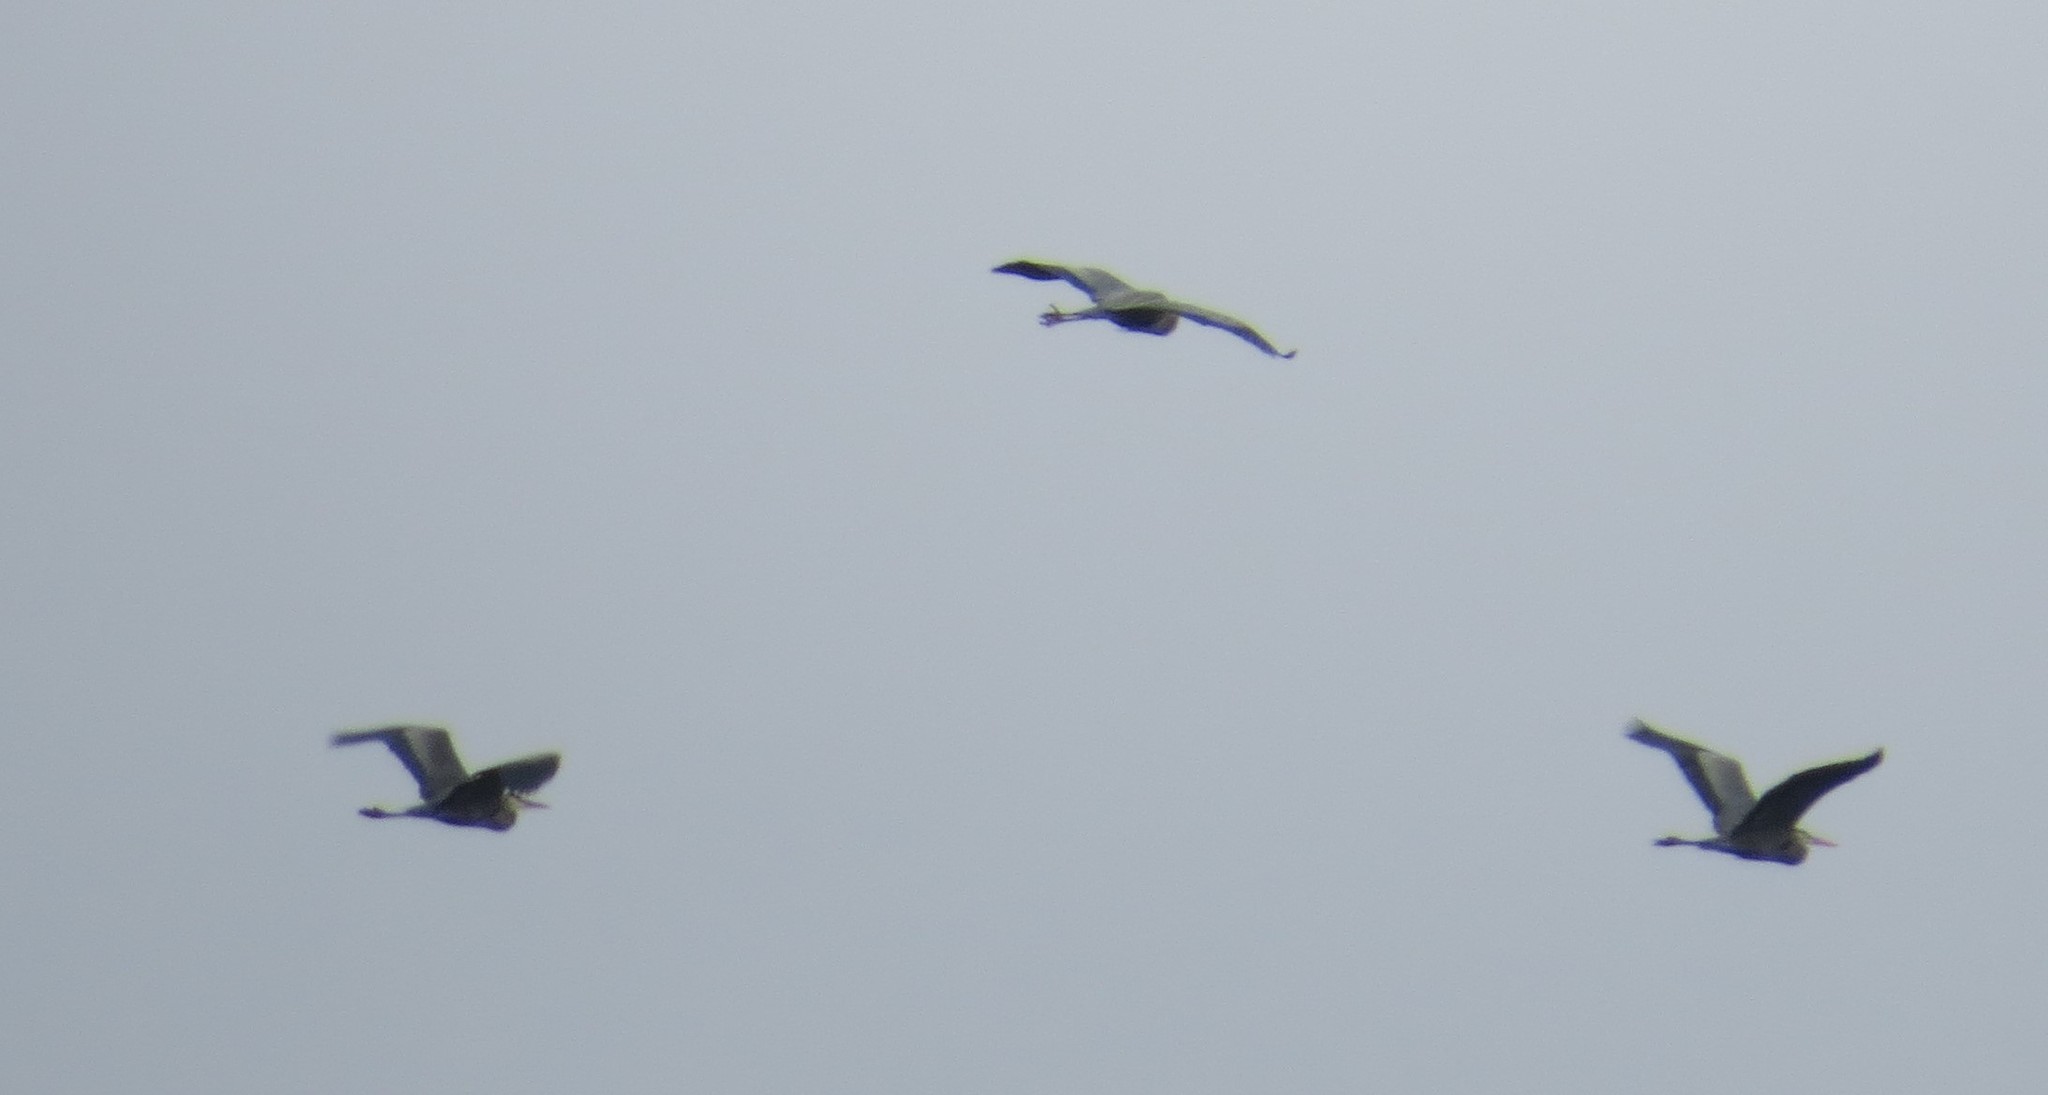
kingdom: Animalia
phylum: Chordata
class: Aves
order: Pelecaniformes
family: Ardeidae
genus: Ardea
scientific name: Ardea herodias
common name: Great blue heron
